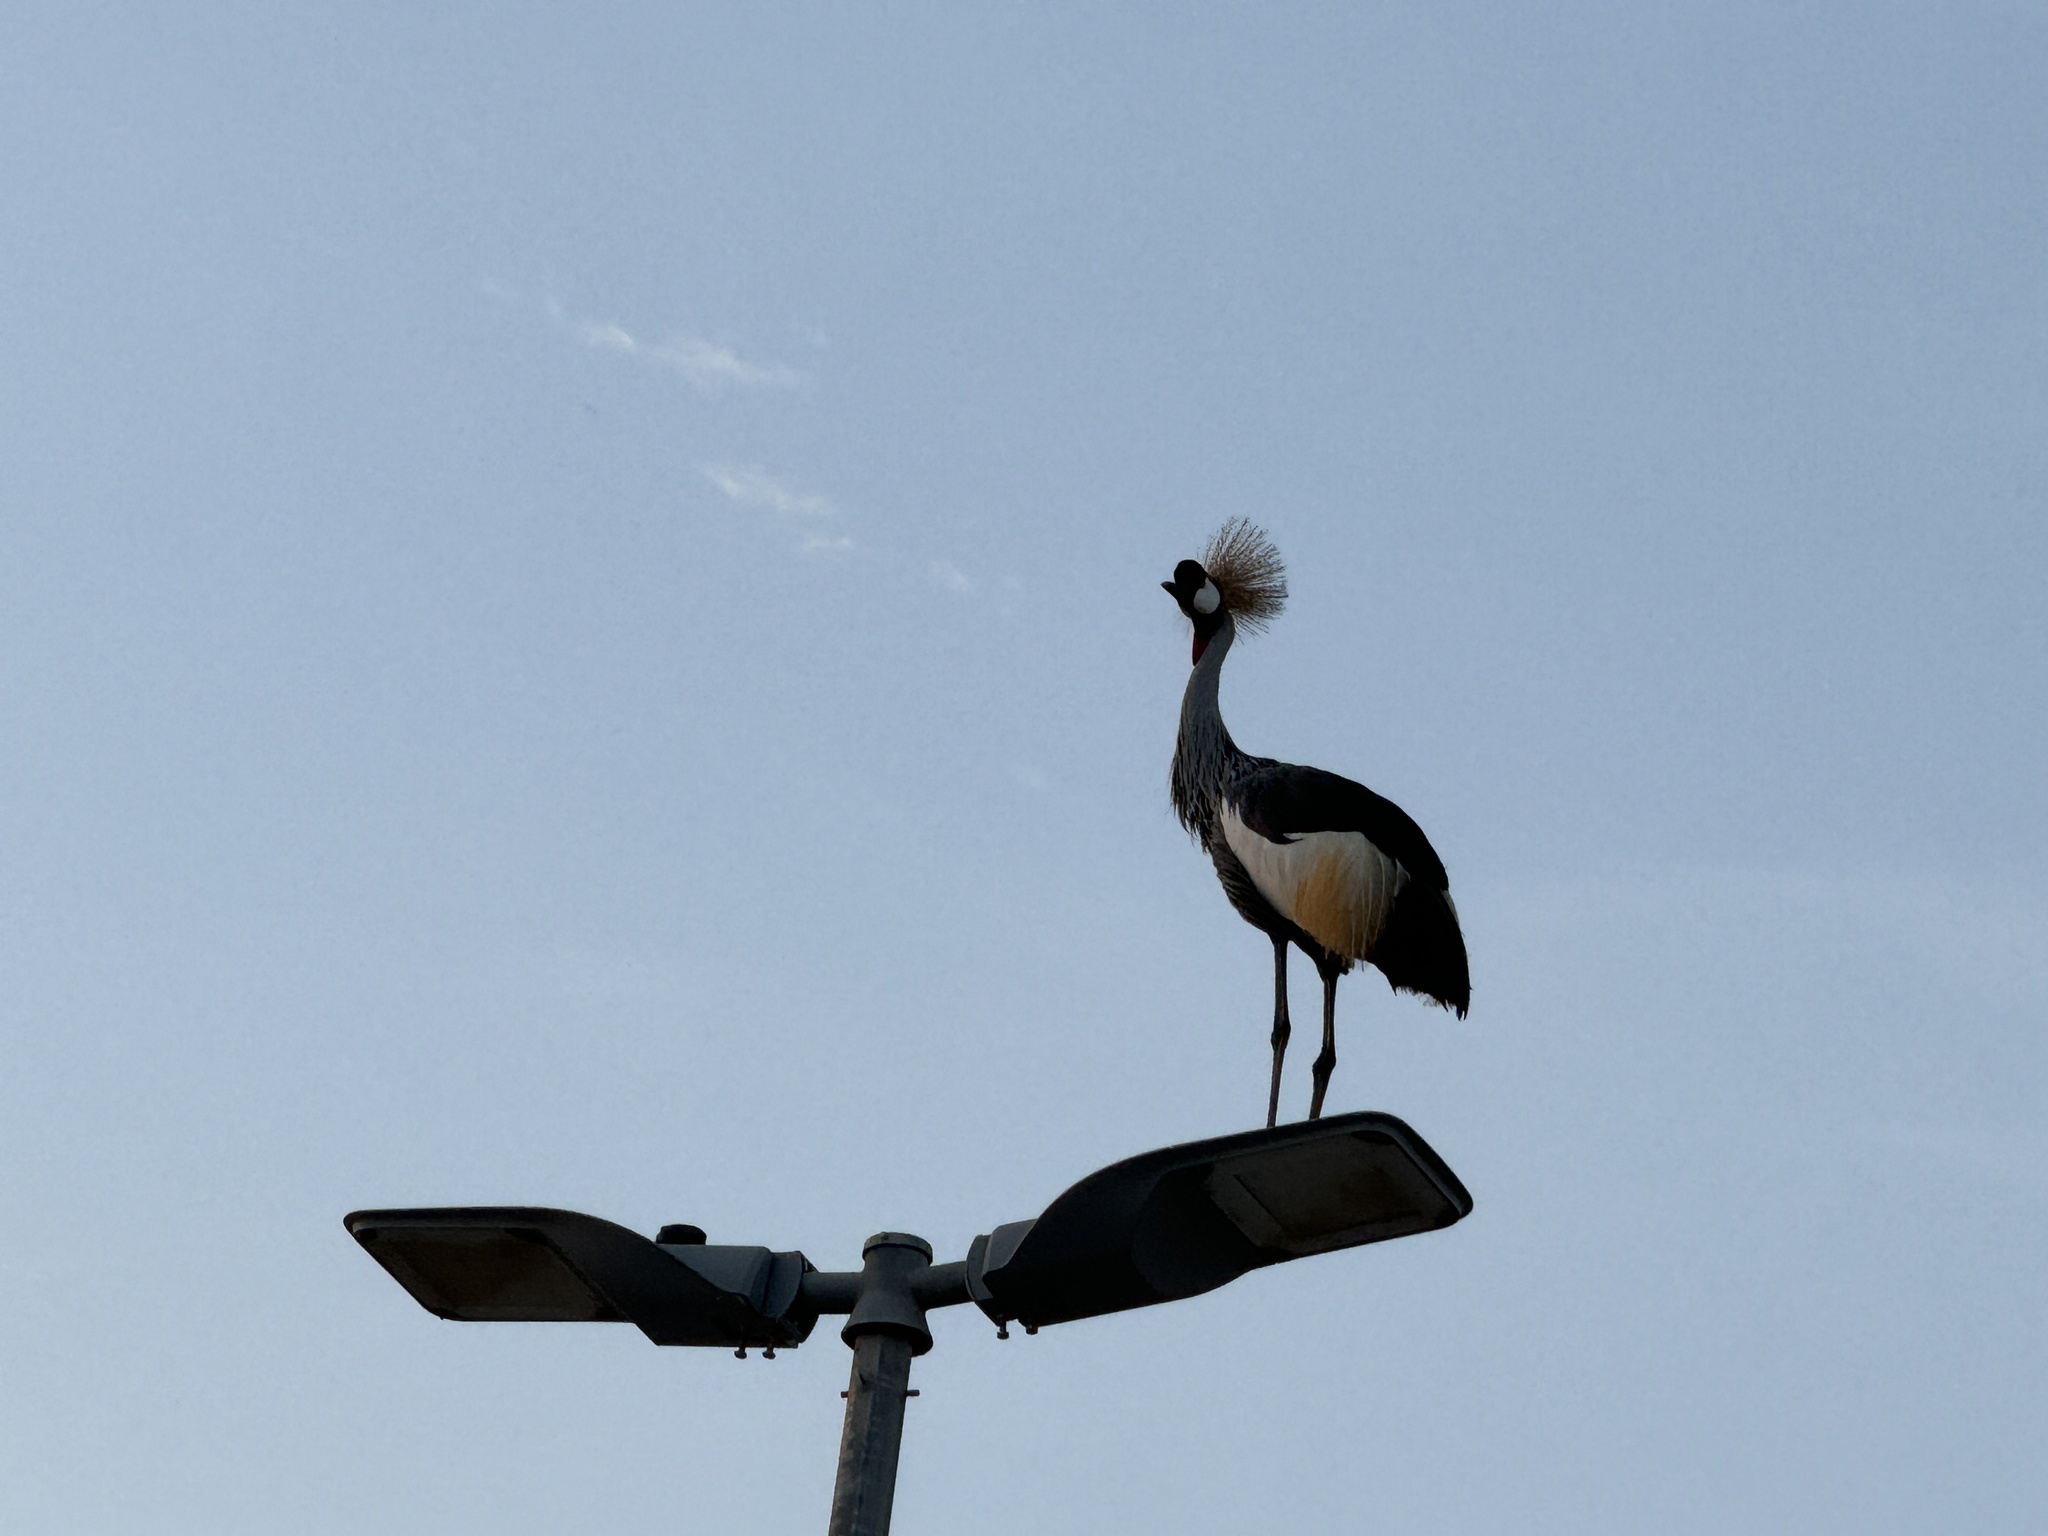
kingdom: Animalia
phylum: Chordata
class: Aves
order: Gruiformes
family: Gruidae
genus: Balearica
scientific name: Balearica regulorum
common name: Grey crowned crane
